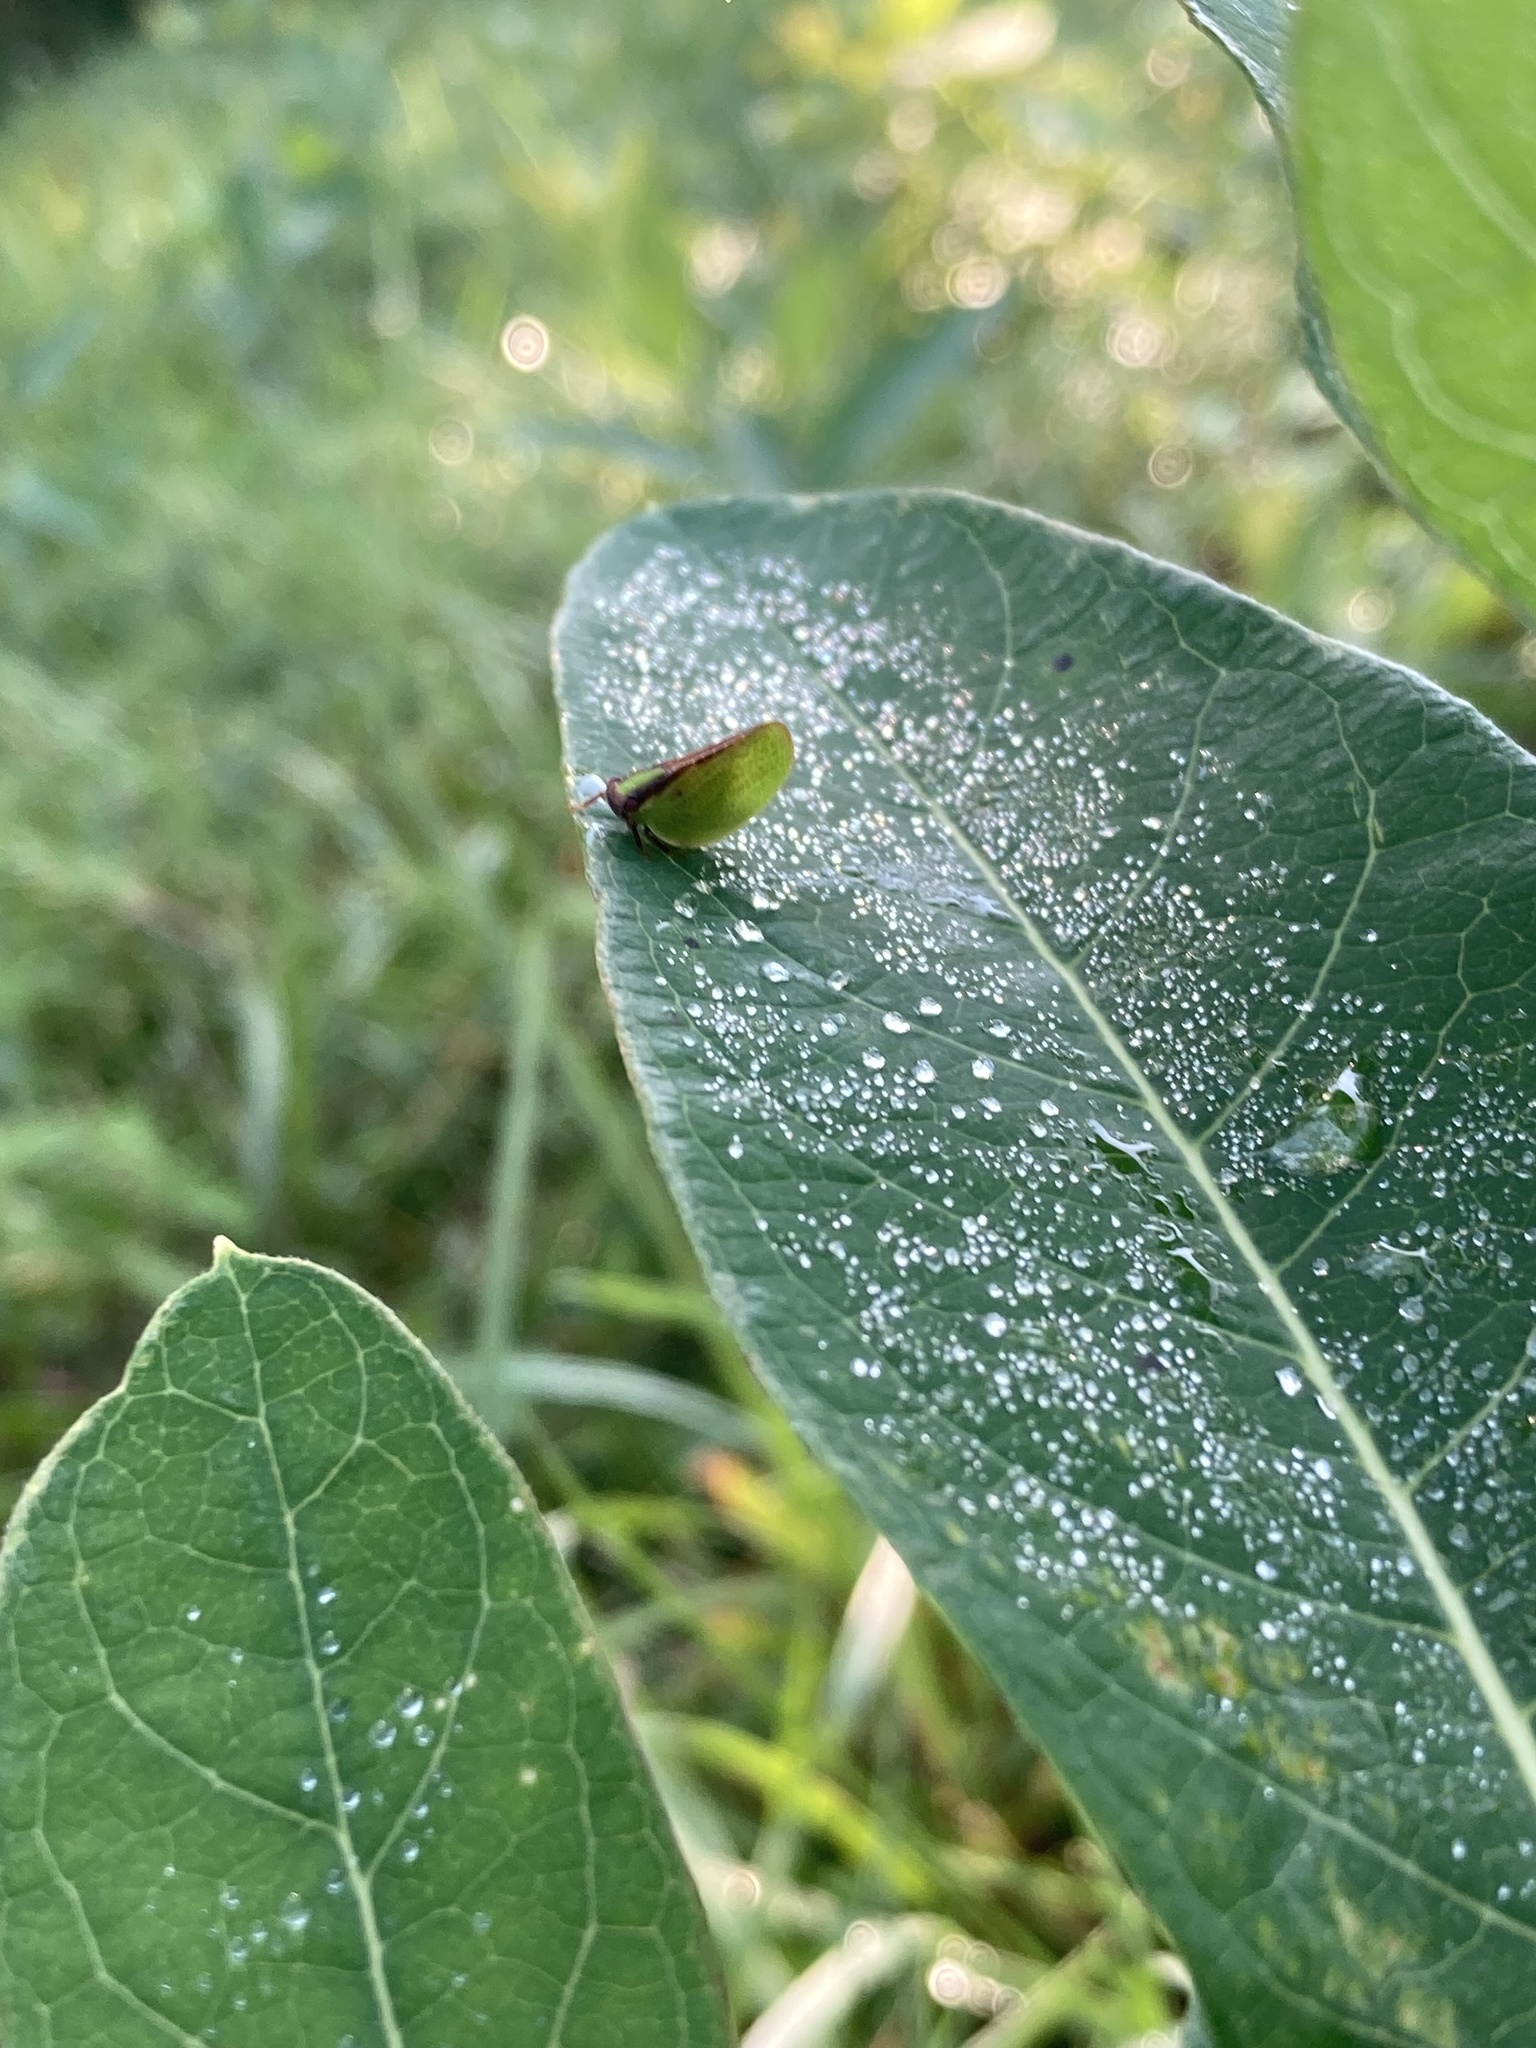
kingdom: Animalia
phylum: Arthropoda
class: Insecta
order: Hemiptera
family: Acanaloniidae
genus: Acanalonia
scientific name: Acanalonia bivittata
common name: Two-striped planthopper
